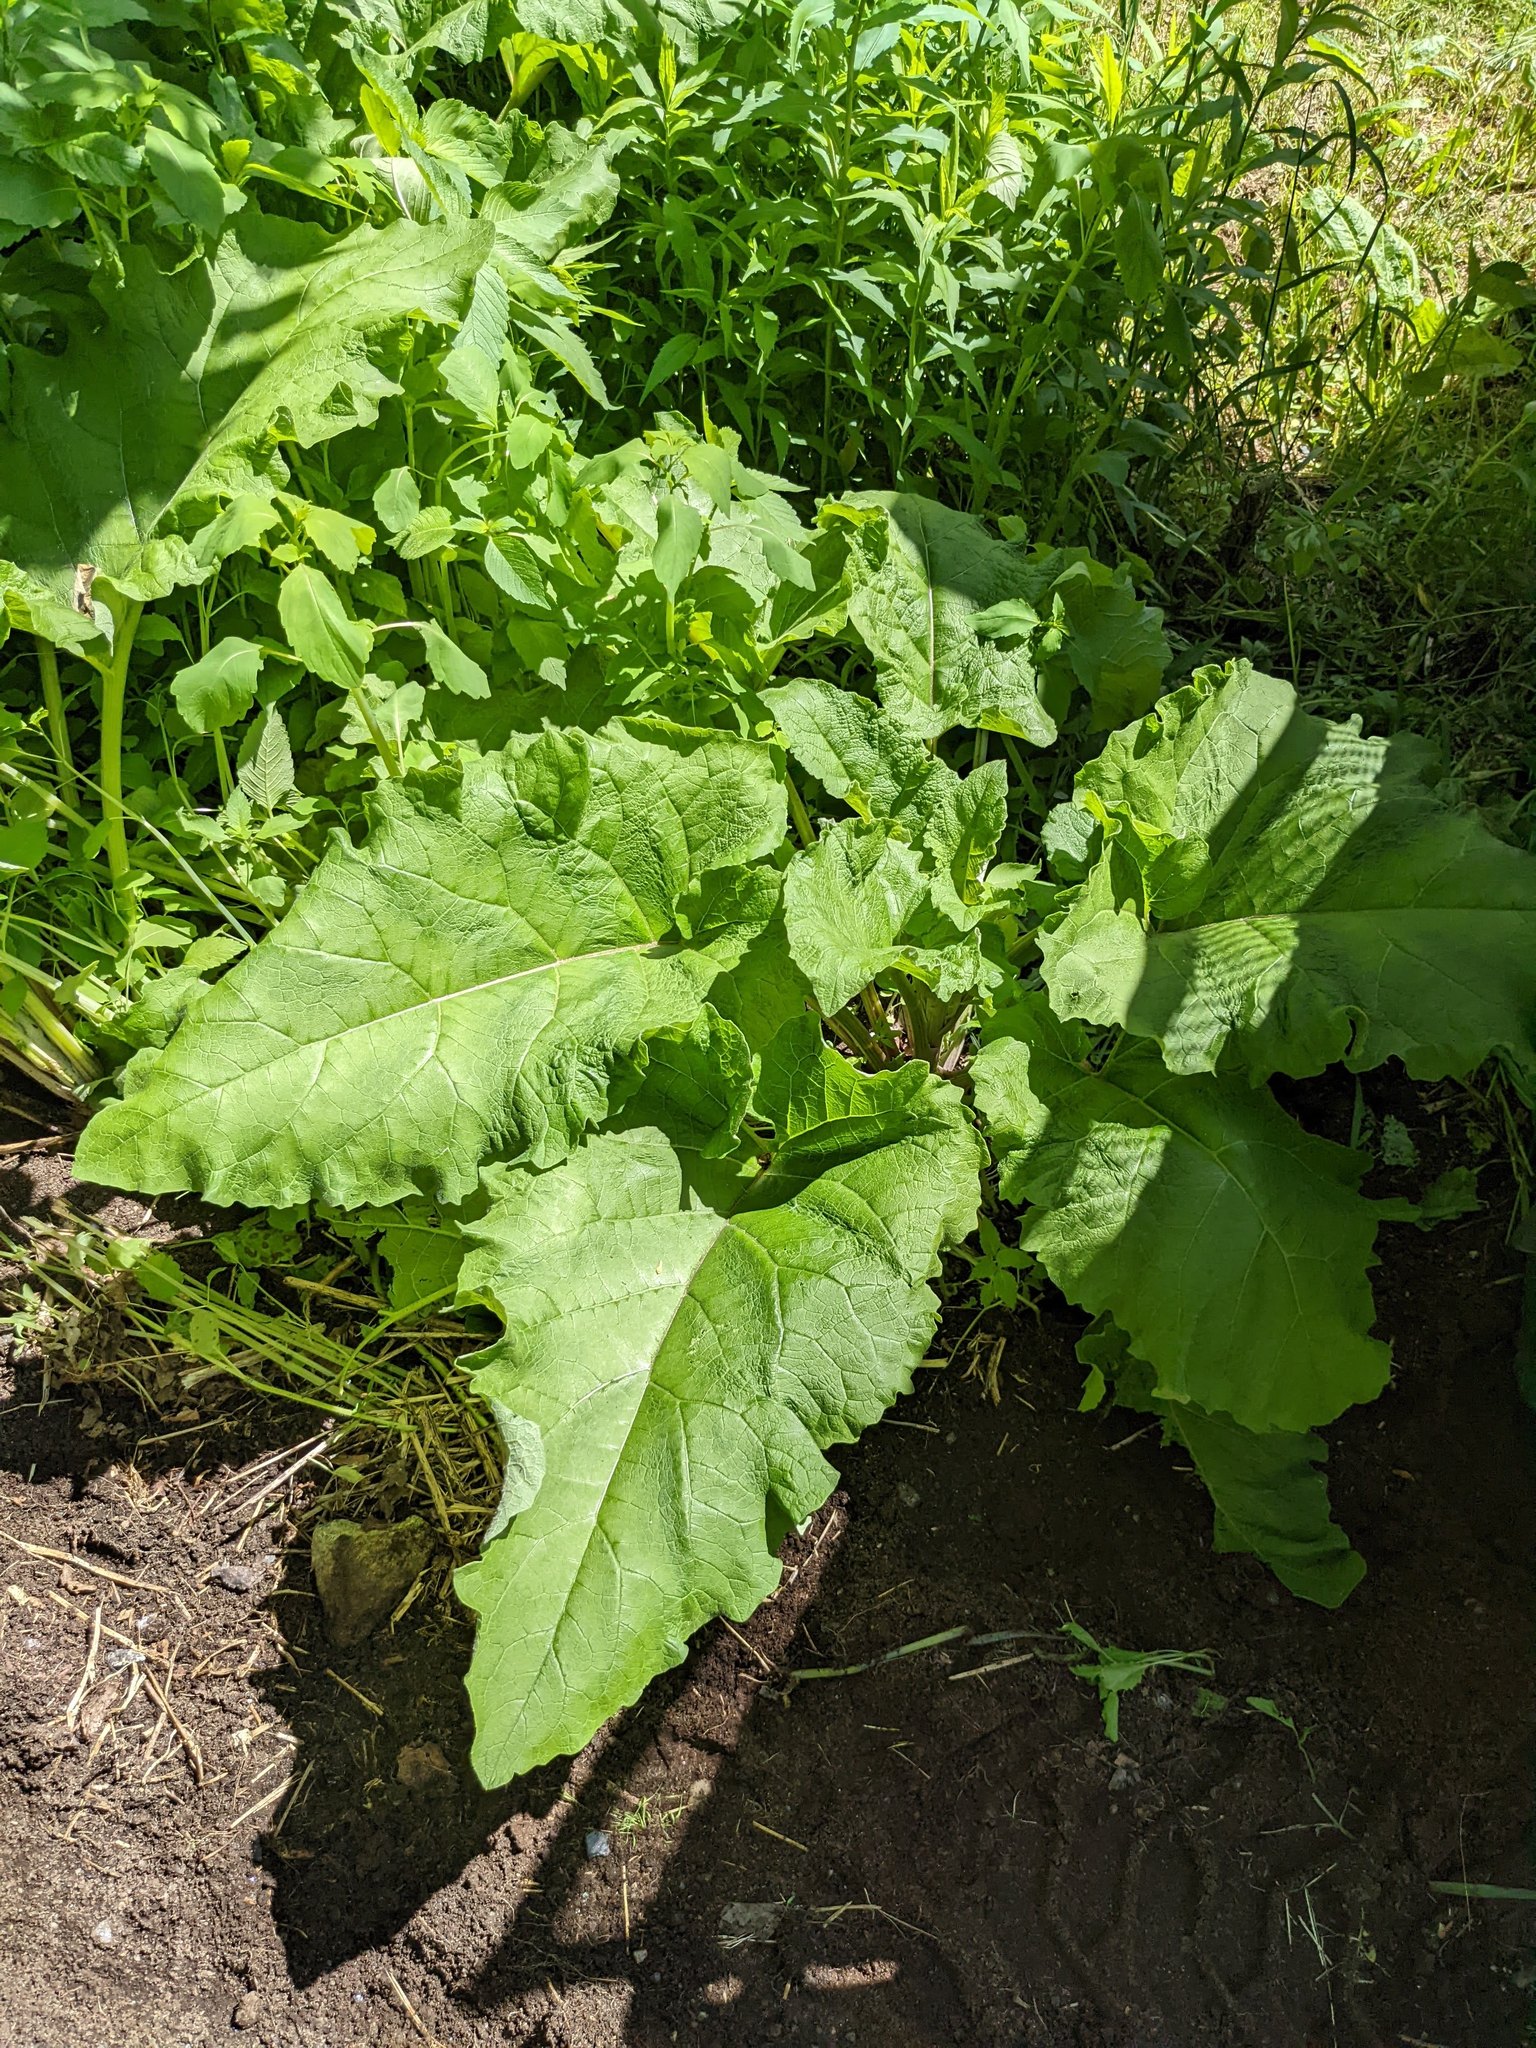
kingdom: Plantae
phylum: Tracheophyta
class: Magnoliopsida
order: Asterales
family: Asteraceae
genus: Arctium
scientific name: Arctium
